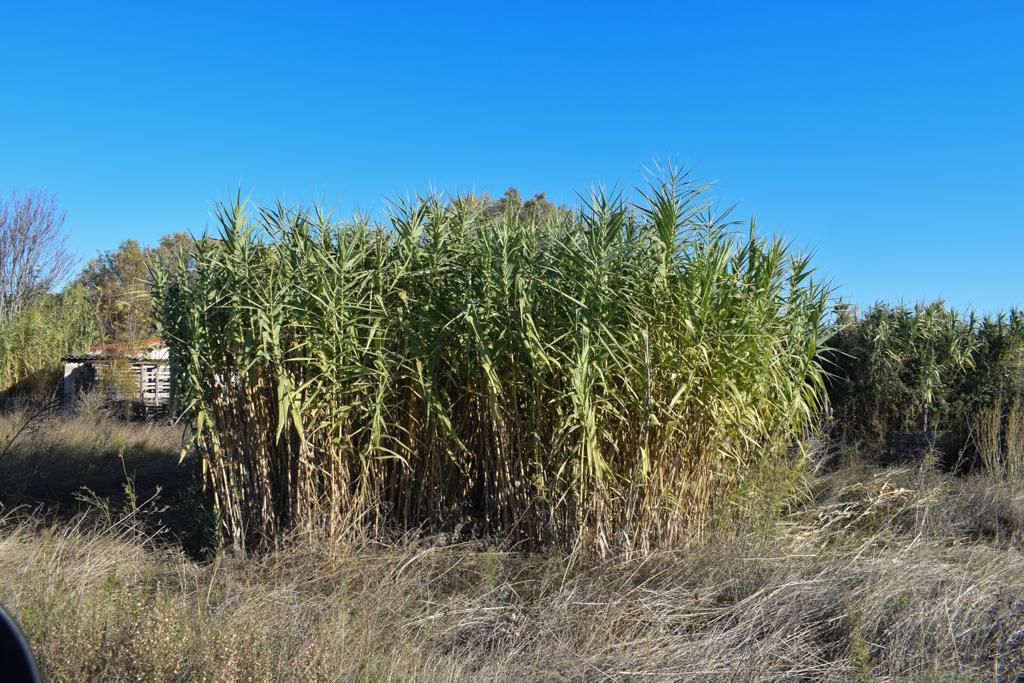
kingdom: Plantae
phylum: Tracheophyta
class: Liliopsida
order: Poales
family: Poaceae
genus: Arundo
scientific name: Arundo donax
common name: Giant reed
